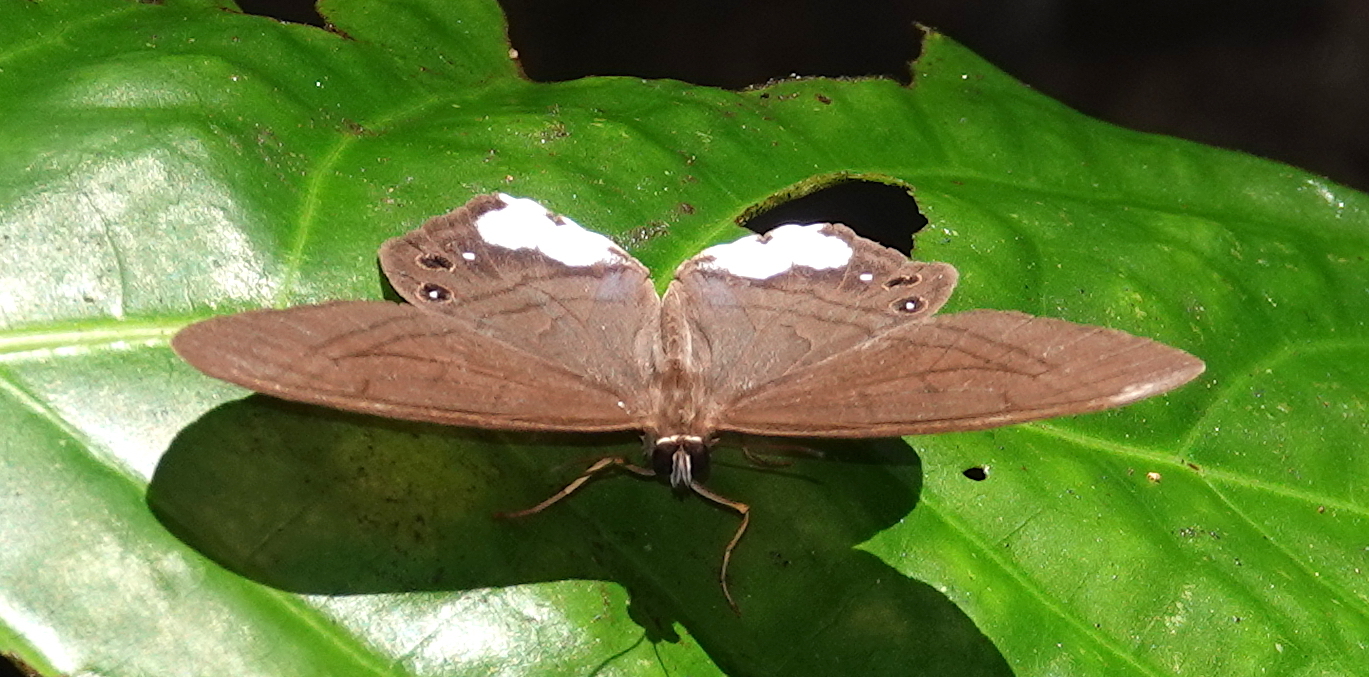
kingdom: Animalia
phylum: Arthropoda
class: Insecta
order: Lepidoptera
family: Nymphalidae
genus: Pierella
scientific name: Pierella astyoche
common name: Astyoche satyr
